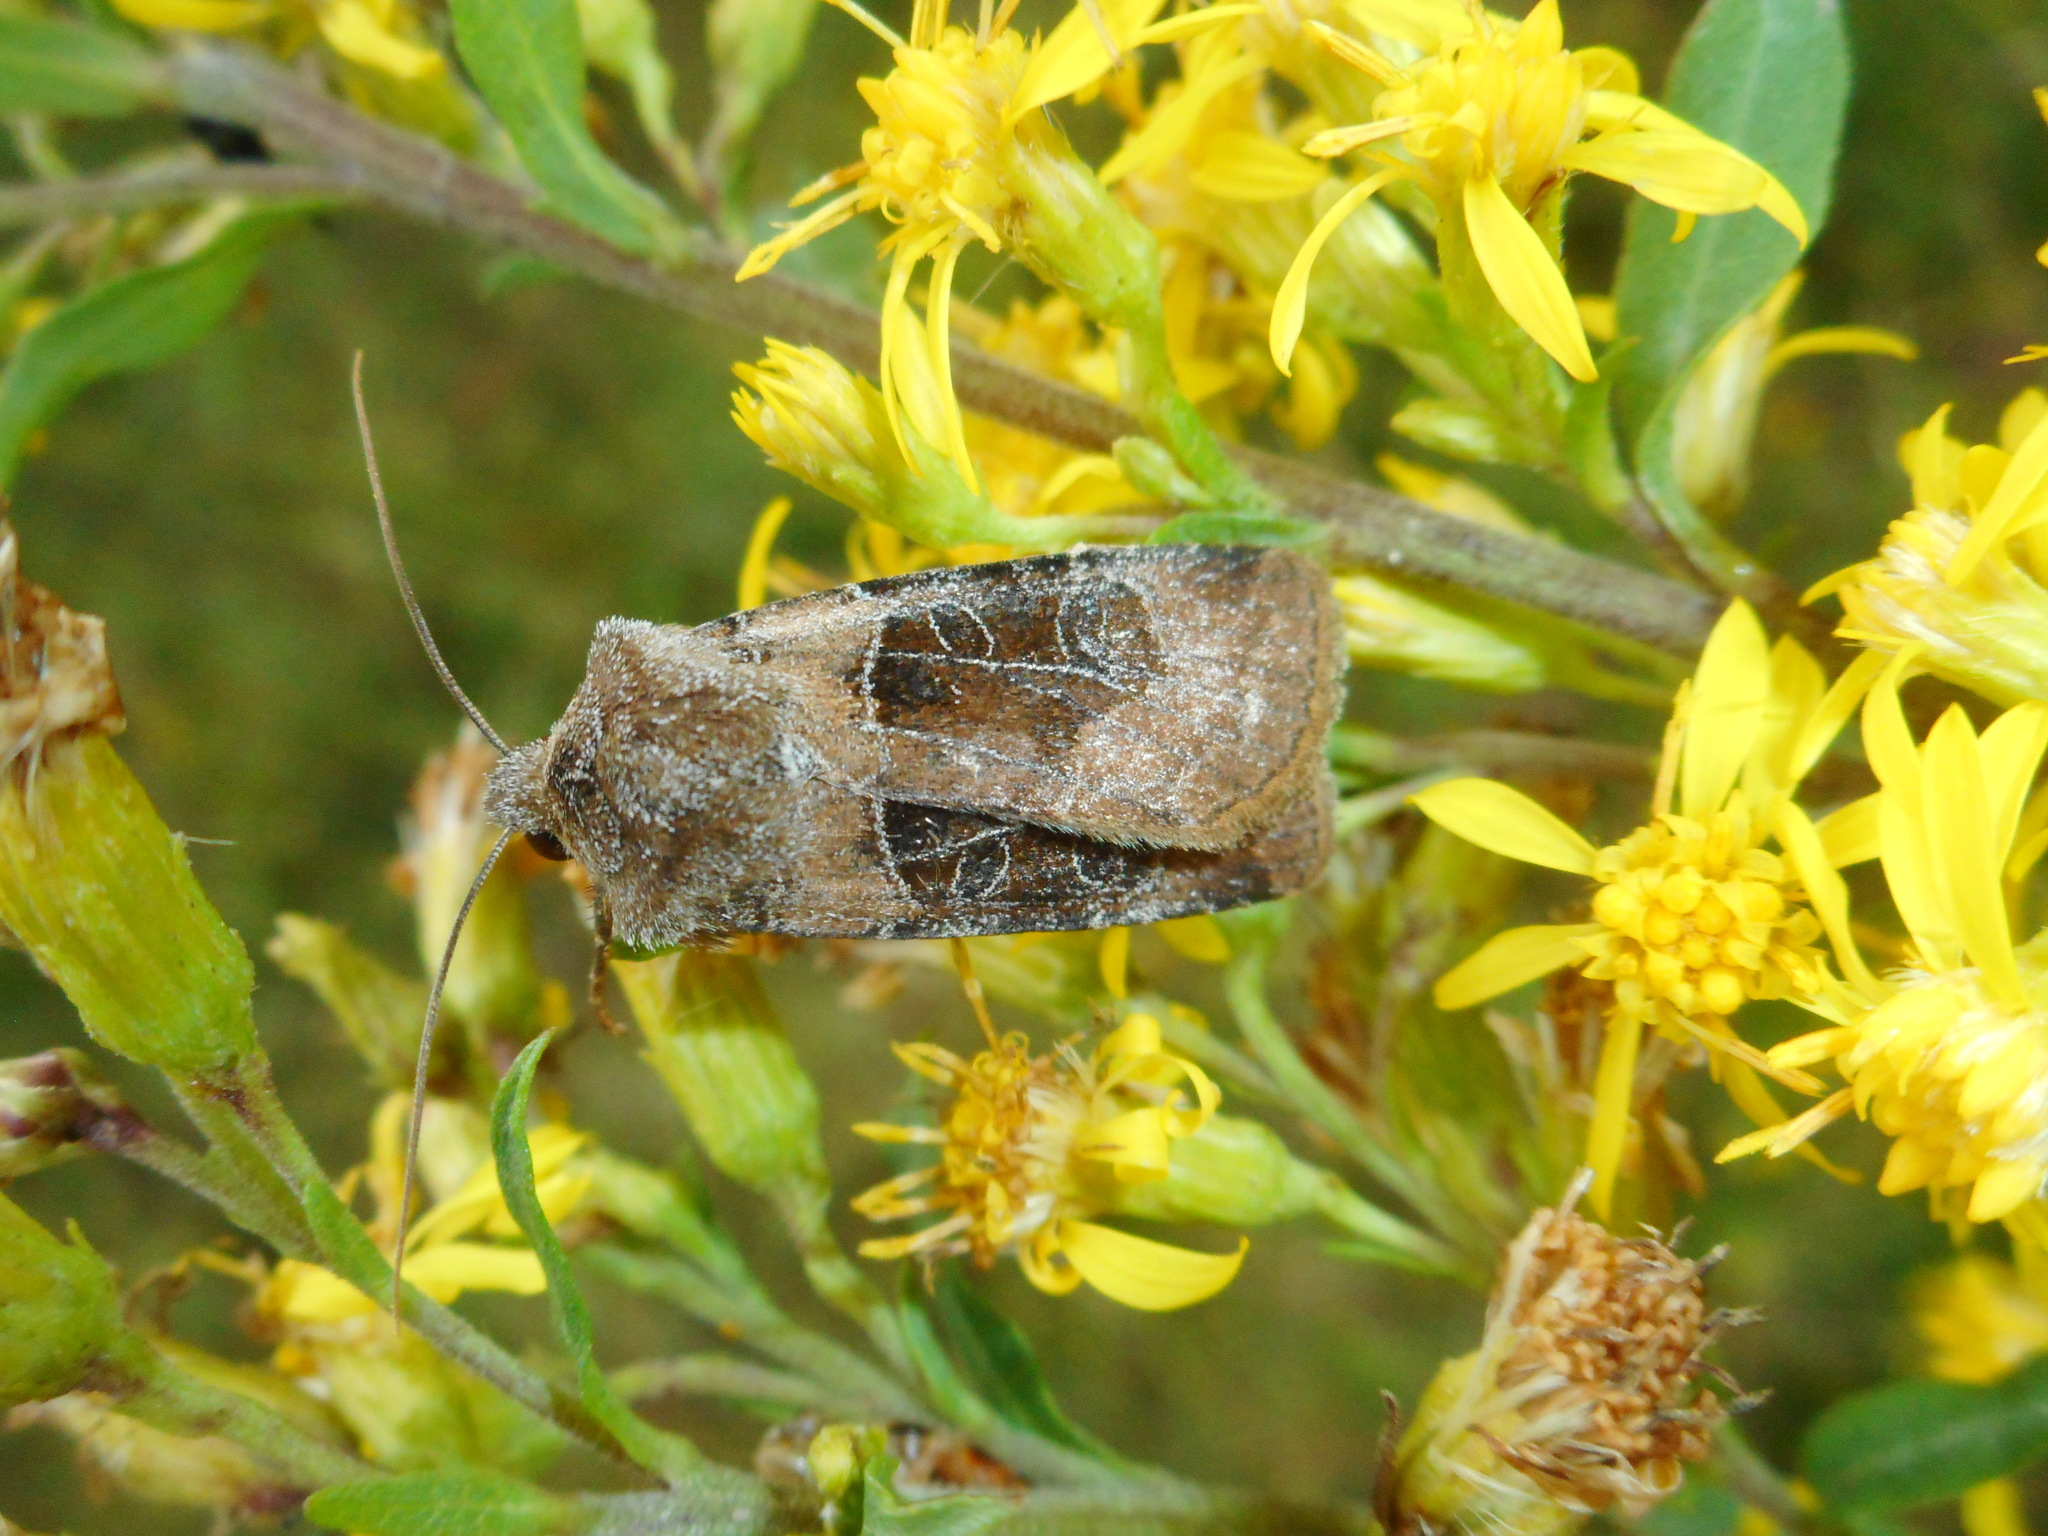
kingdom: Animalia
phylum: Arthropoda
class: Insecta
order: Lepidoptera
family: Noctuidae
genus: Chersotis
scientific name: Chersotis cuprea
